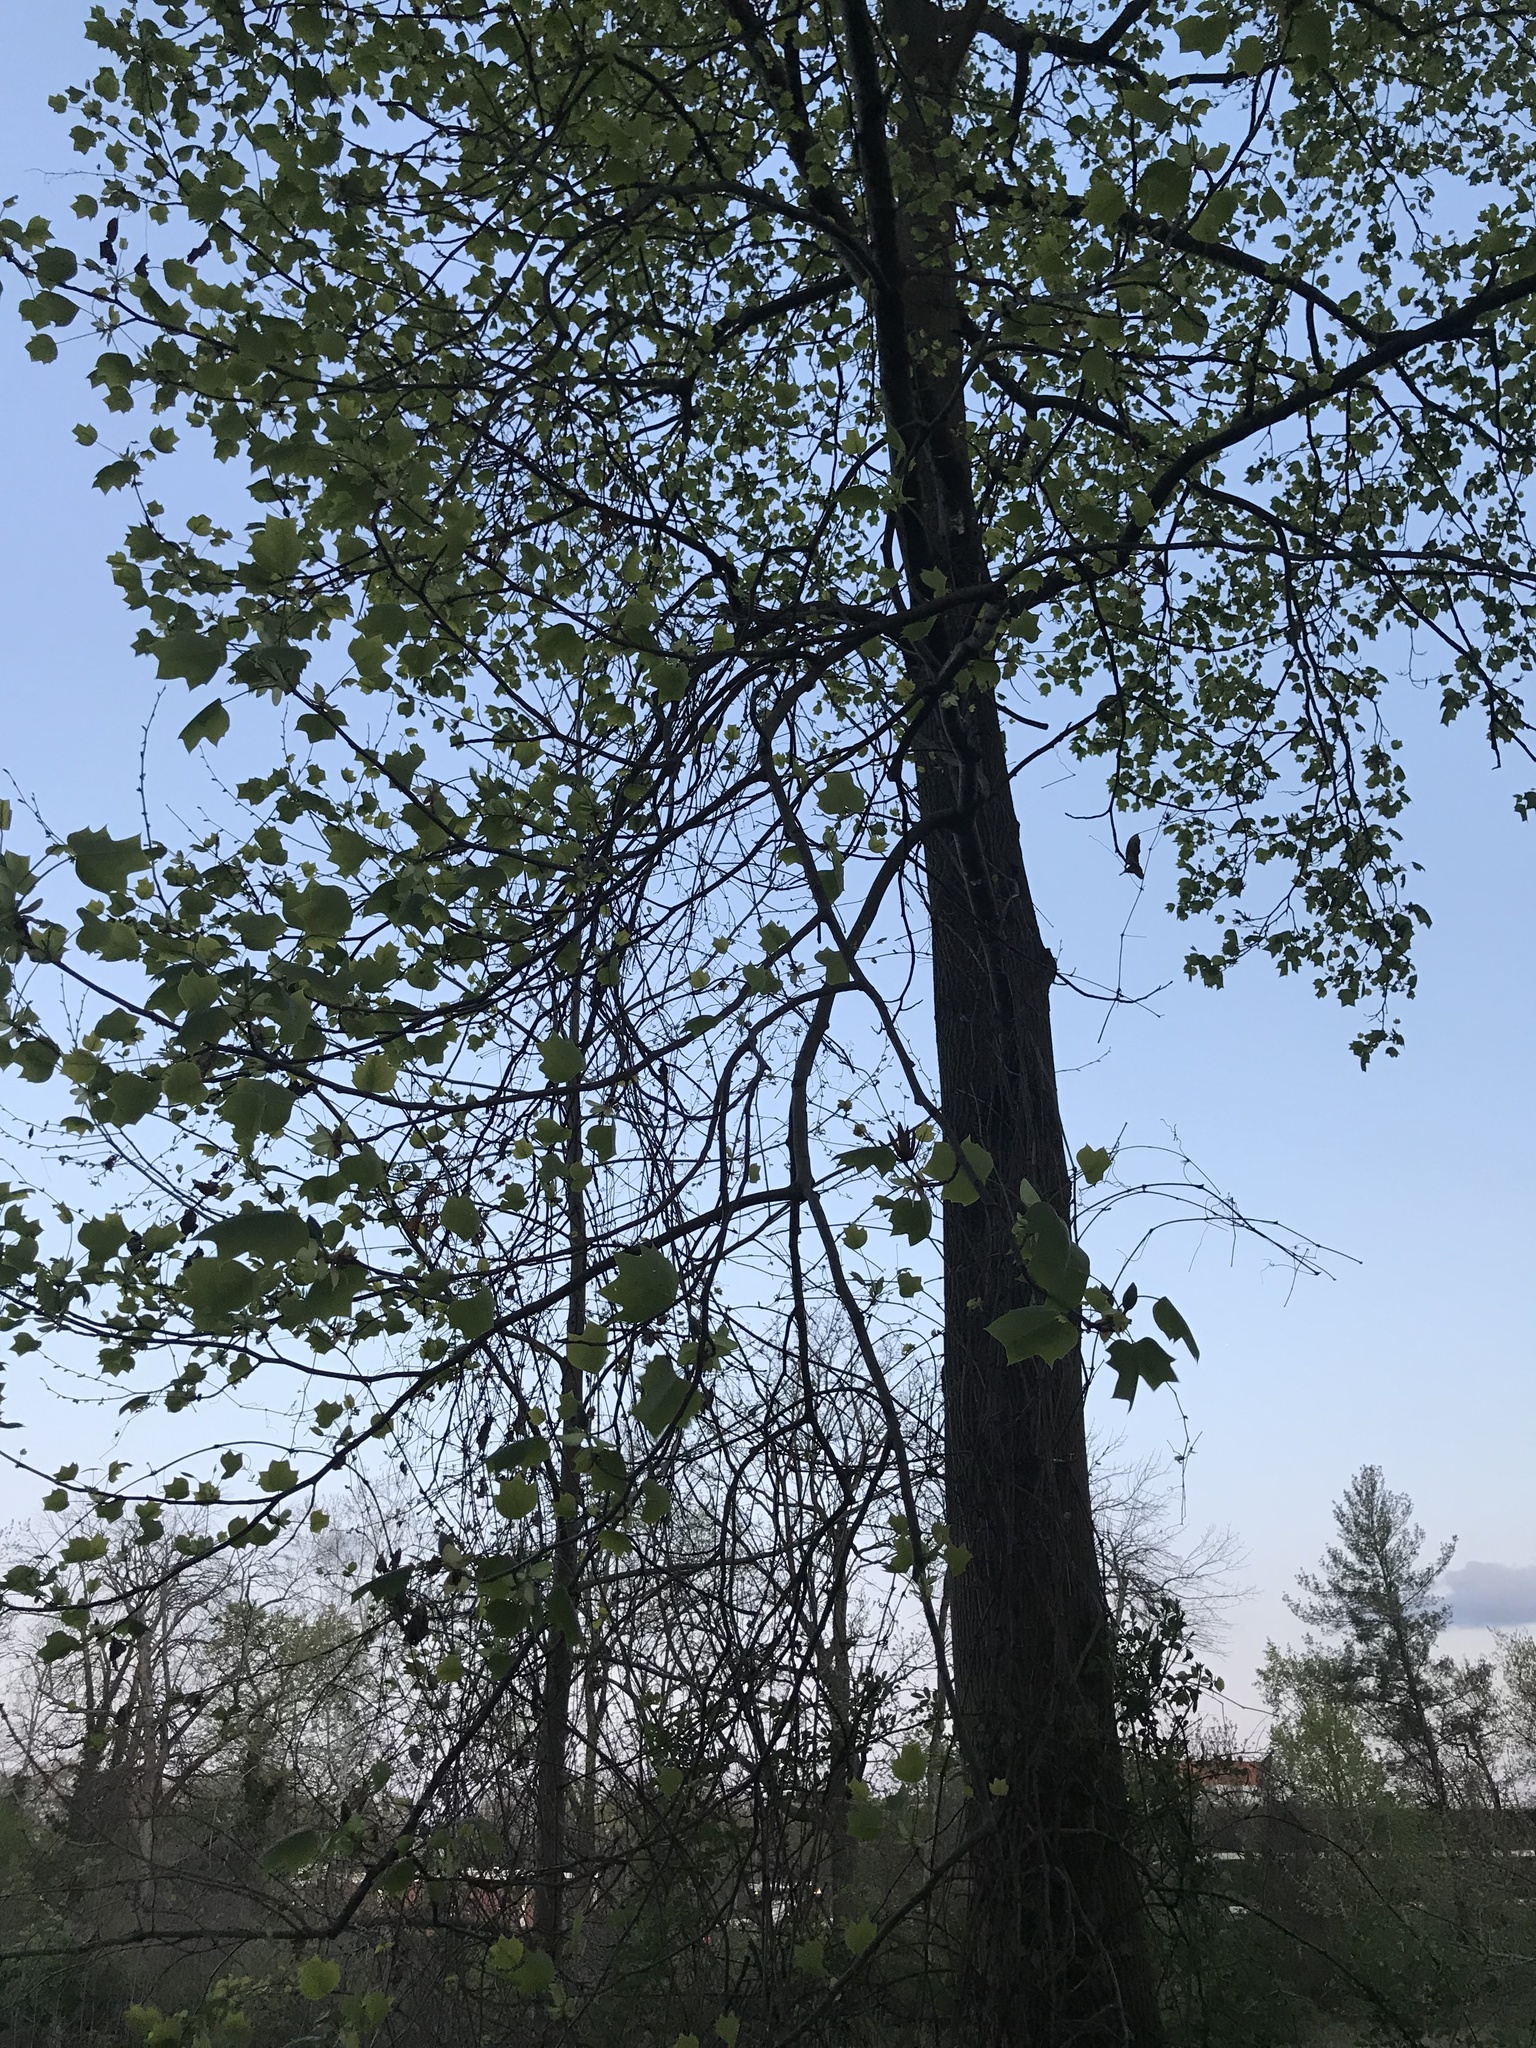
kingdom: Plantae
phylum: Tracheophyta
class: Magnoliopsida
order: Magnoliales
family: Magnoliaceae
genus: Liriodendron
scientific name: Liriodendron tulipifera
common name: Tulip tree
